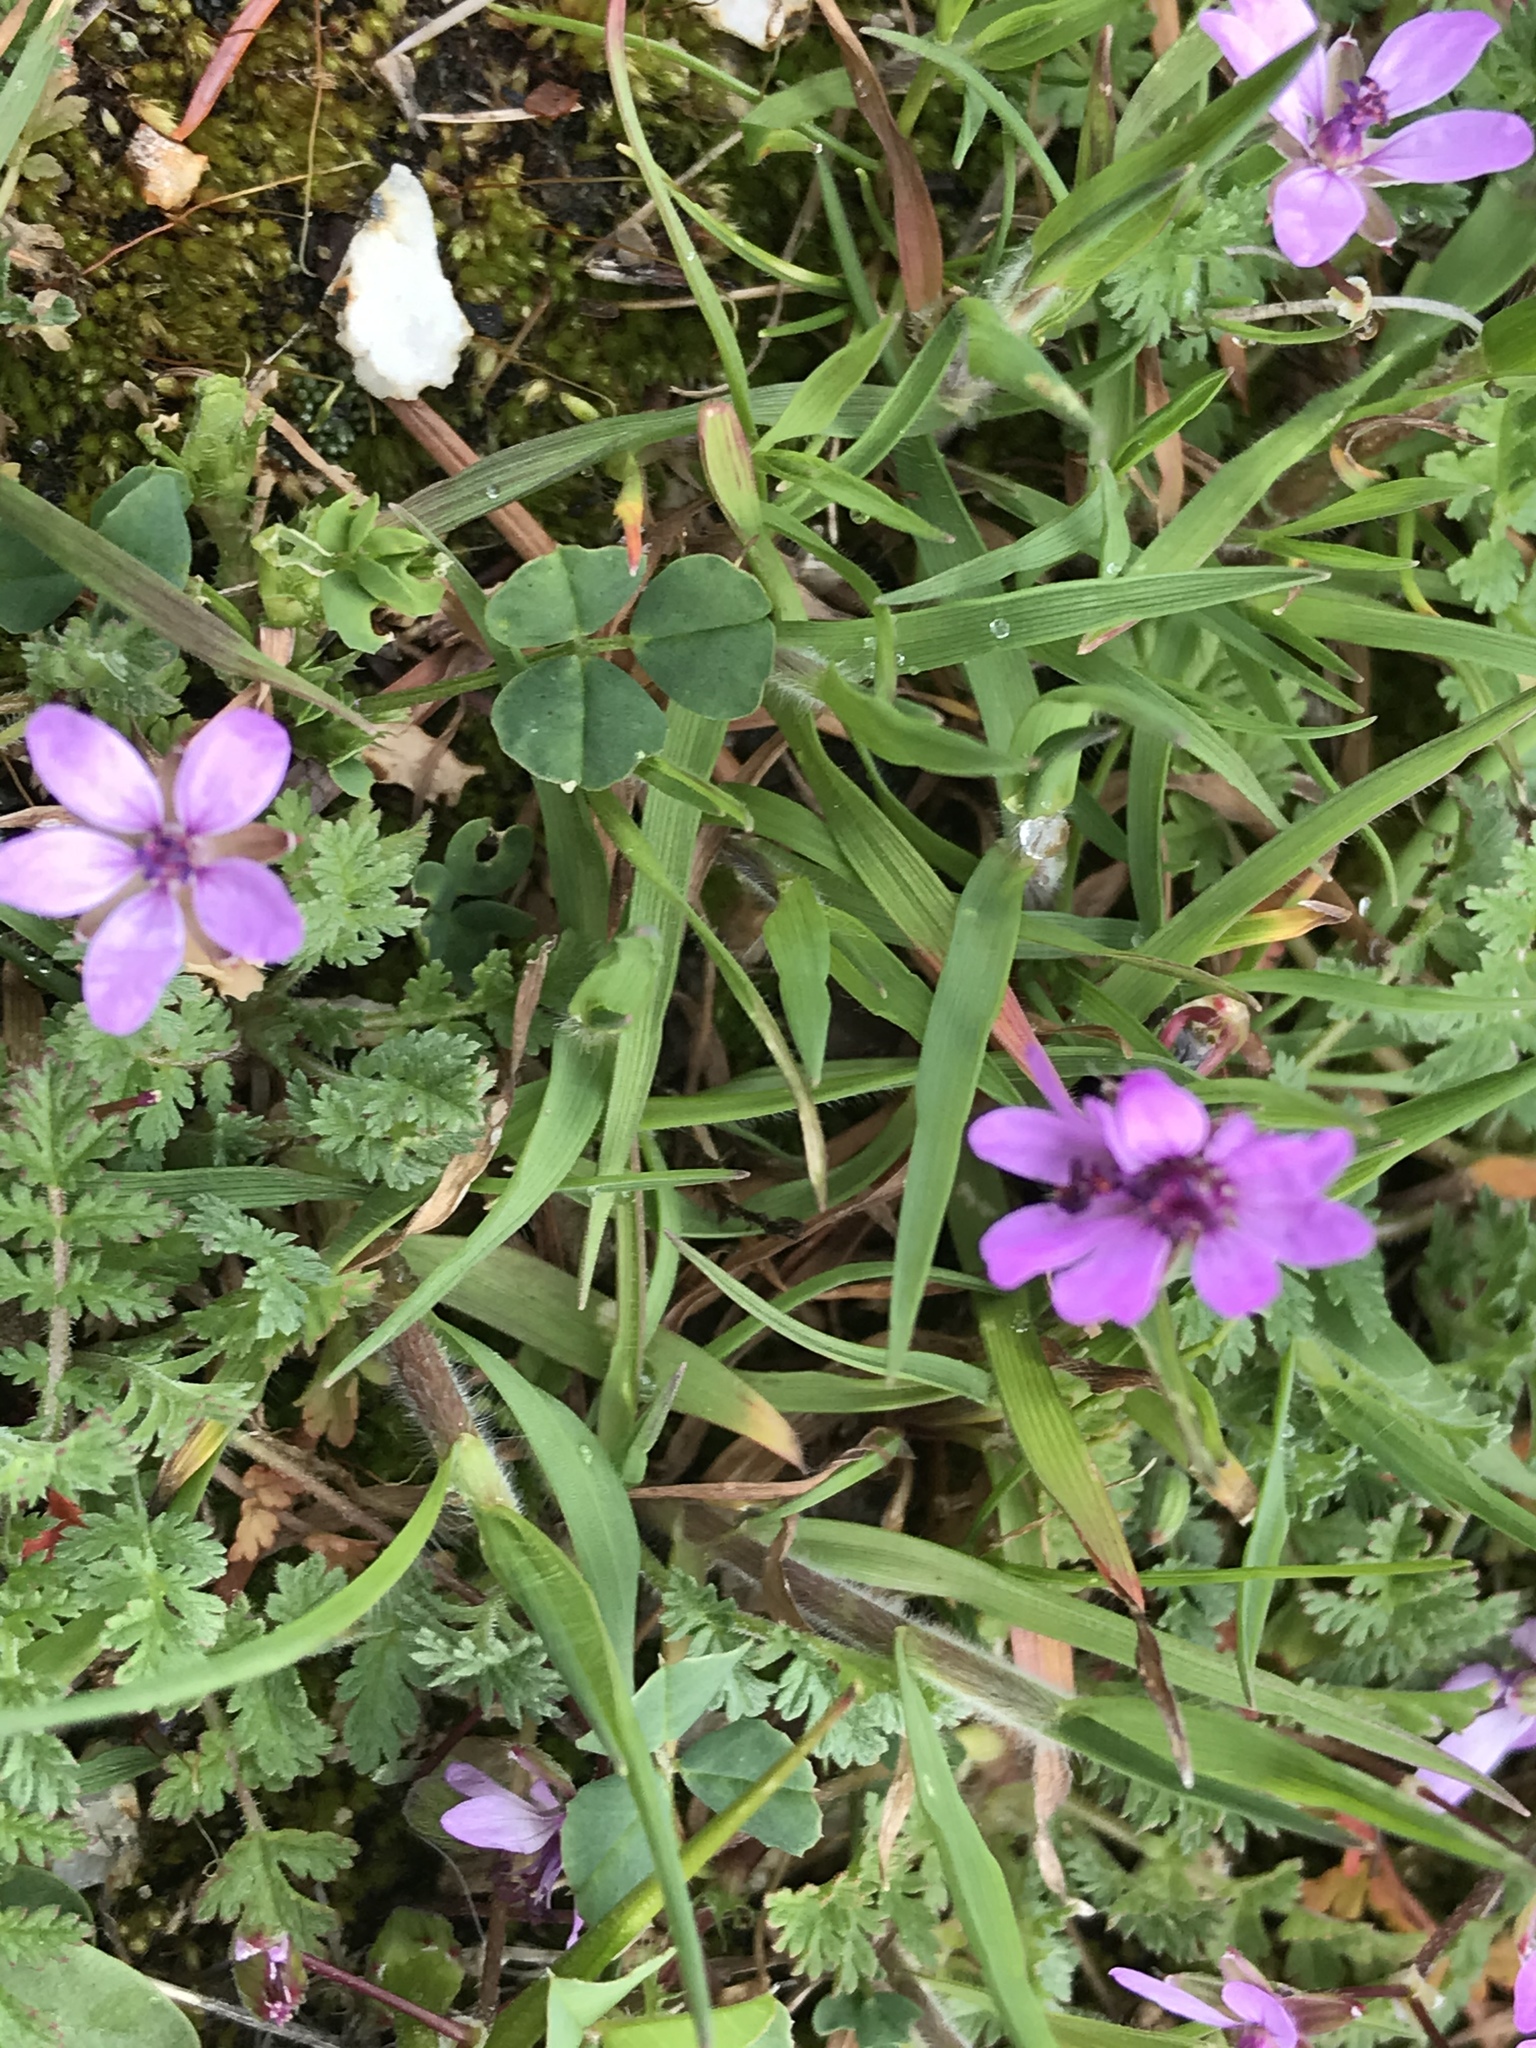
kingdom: Plantae
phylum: Tracheophyta
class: Magnoliopsida
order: Geraniales
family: Geraniaceae
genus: Erodium
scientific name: Erodium cicutarium
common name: Common stork's-bill
